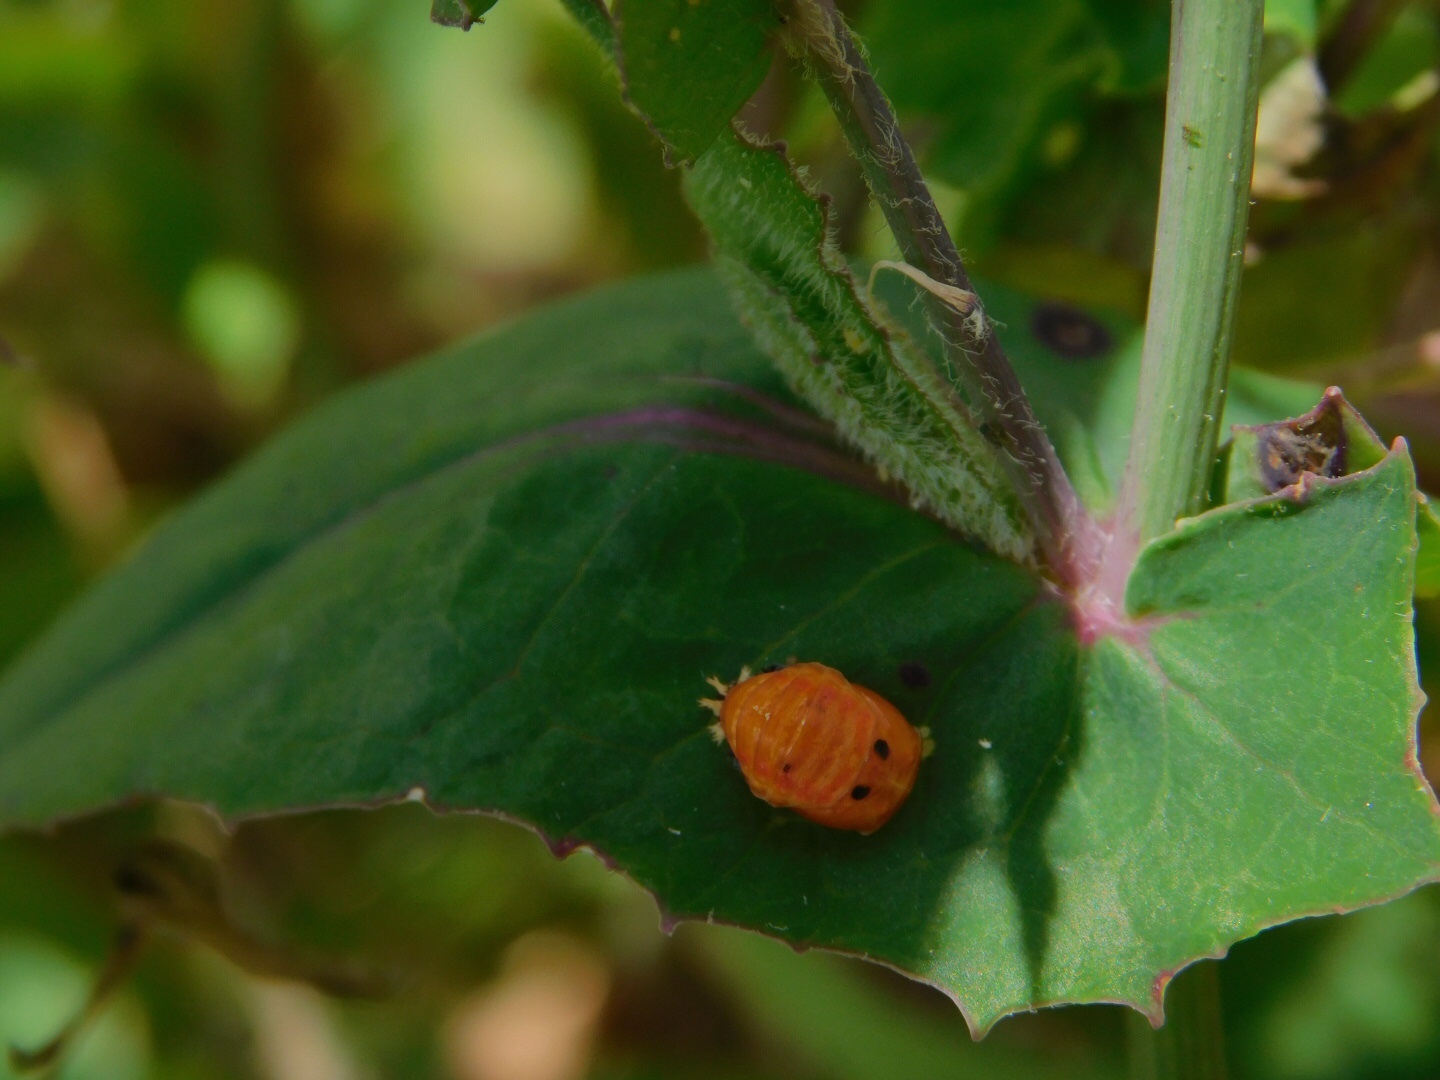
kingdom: Animalia
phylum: Arthropoda
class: Insecta
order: Coleoptera
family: Coccinellidae
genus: Harmonia
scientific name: Harmonia axyridis
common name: Harlequin ladybird
